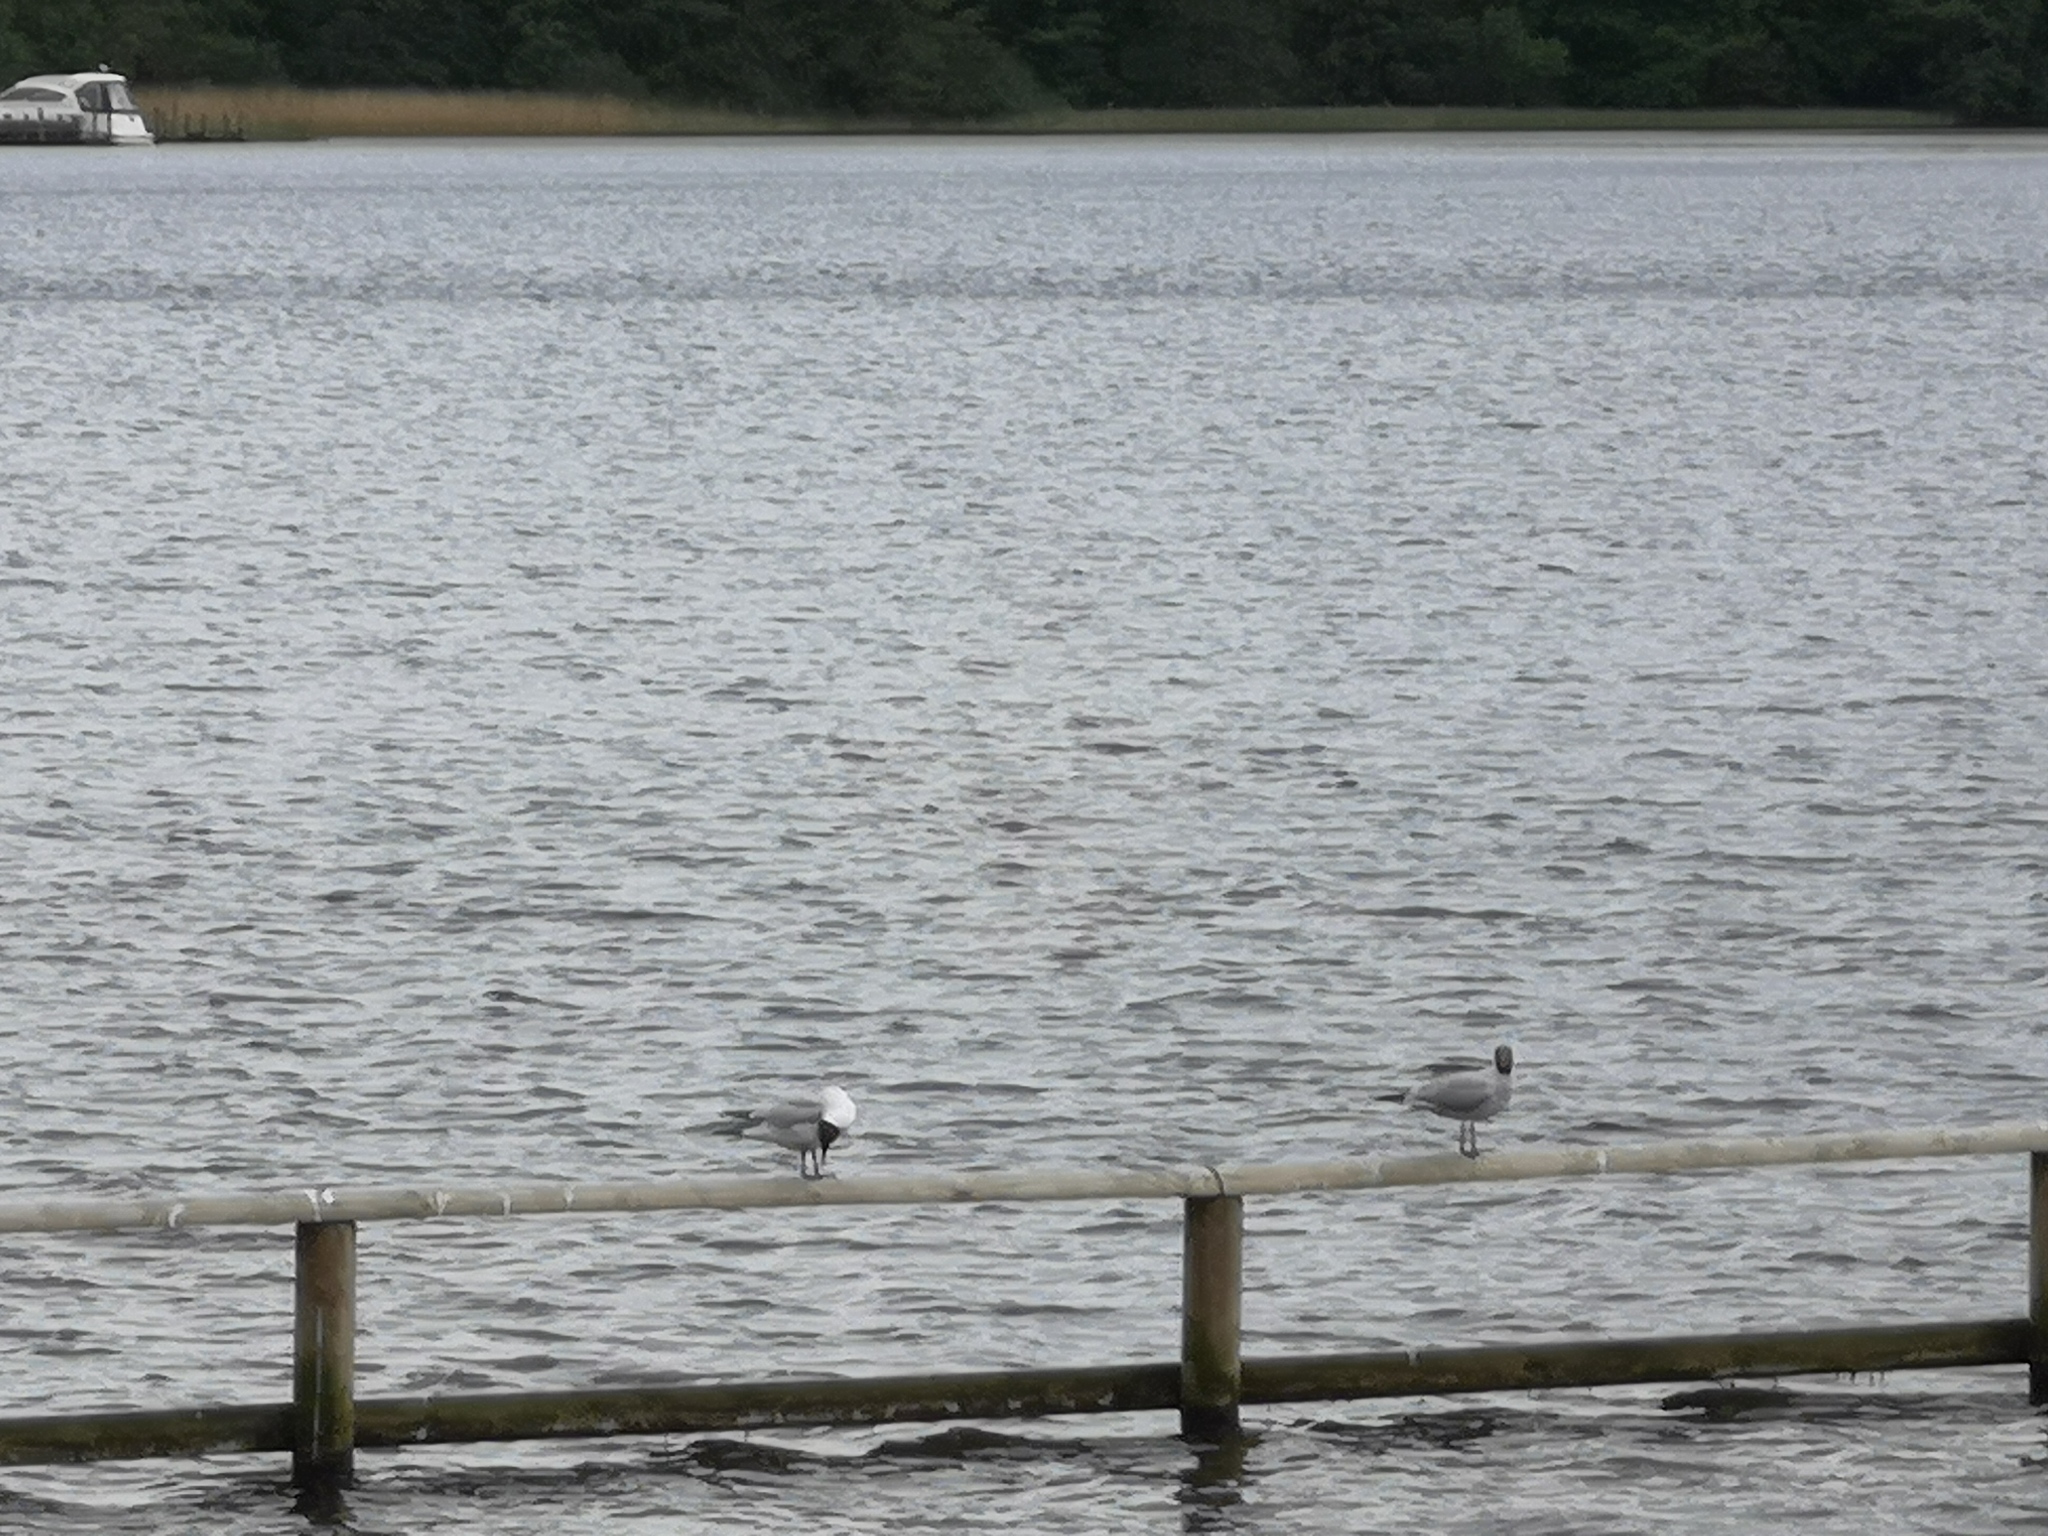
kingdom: Animalia
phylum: Chordata
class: Aves
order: Charadriiformes
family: Laridae
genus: Chroicocephalus
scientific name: Chroicocephalus ridibundus
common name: Black-headed gull
